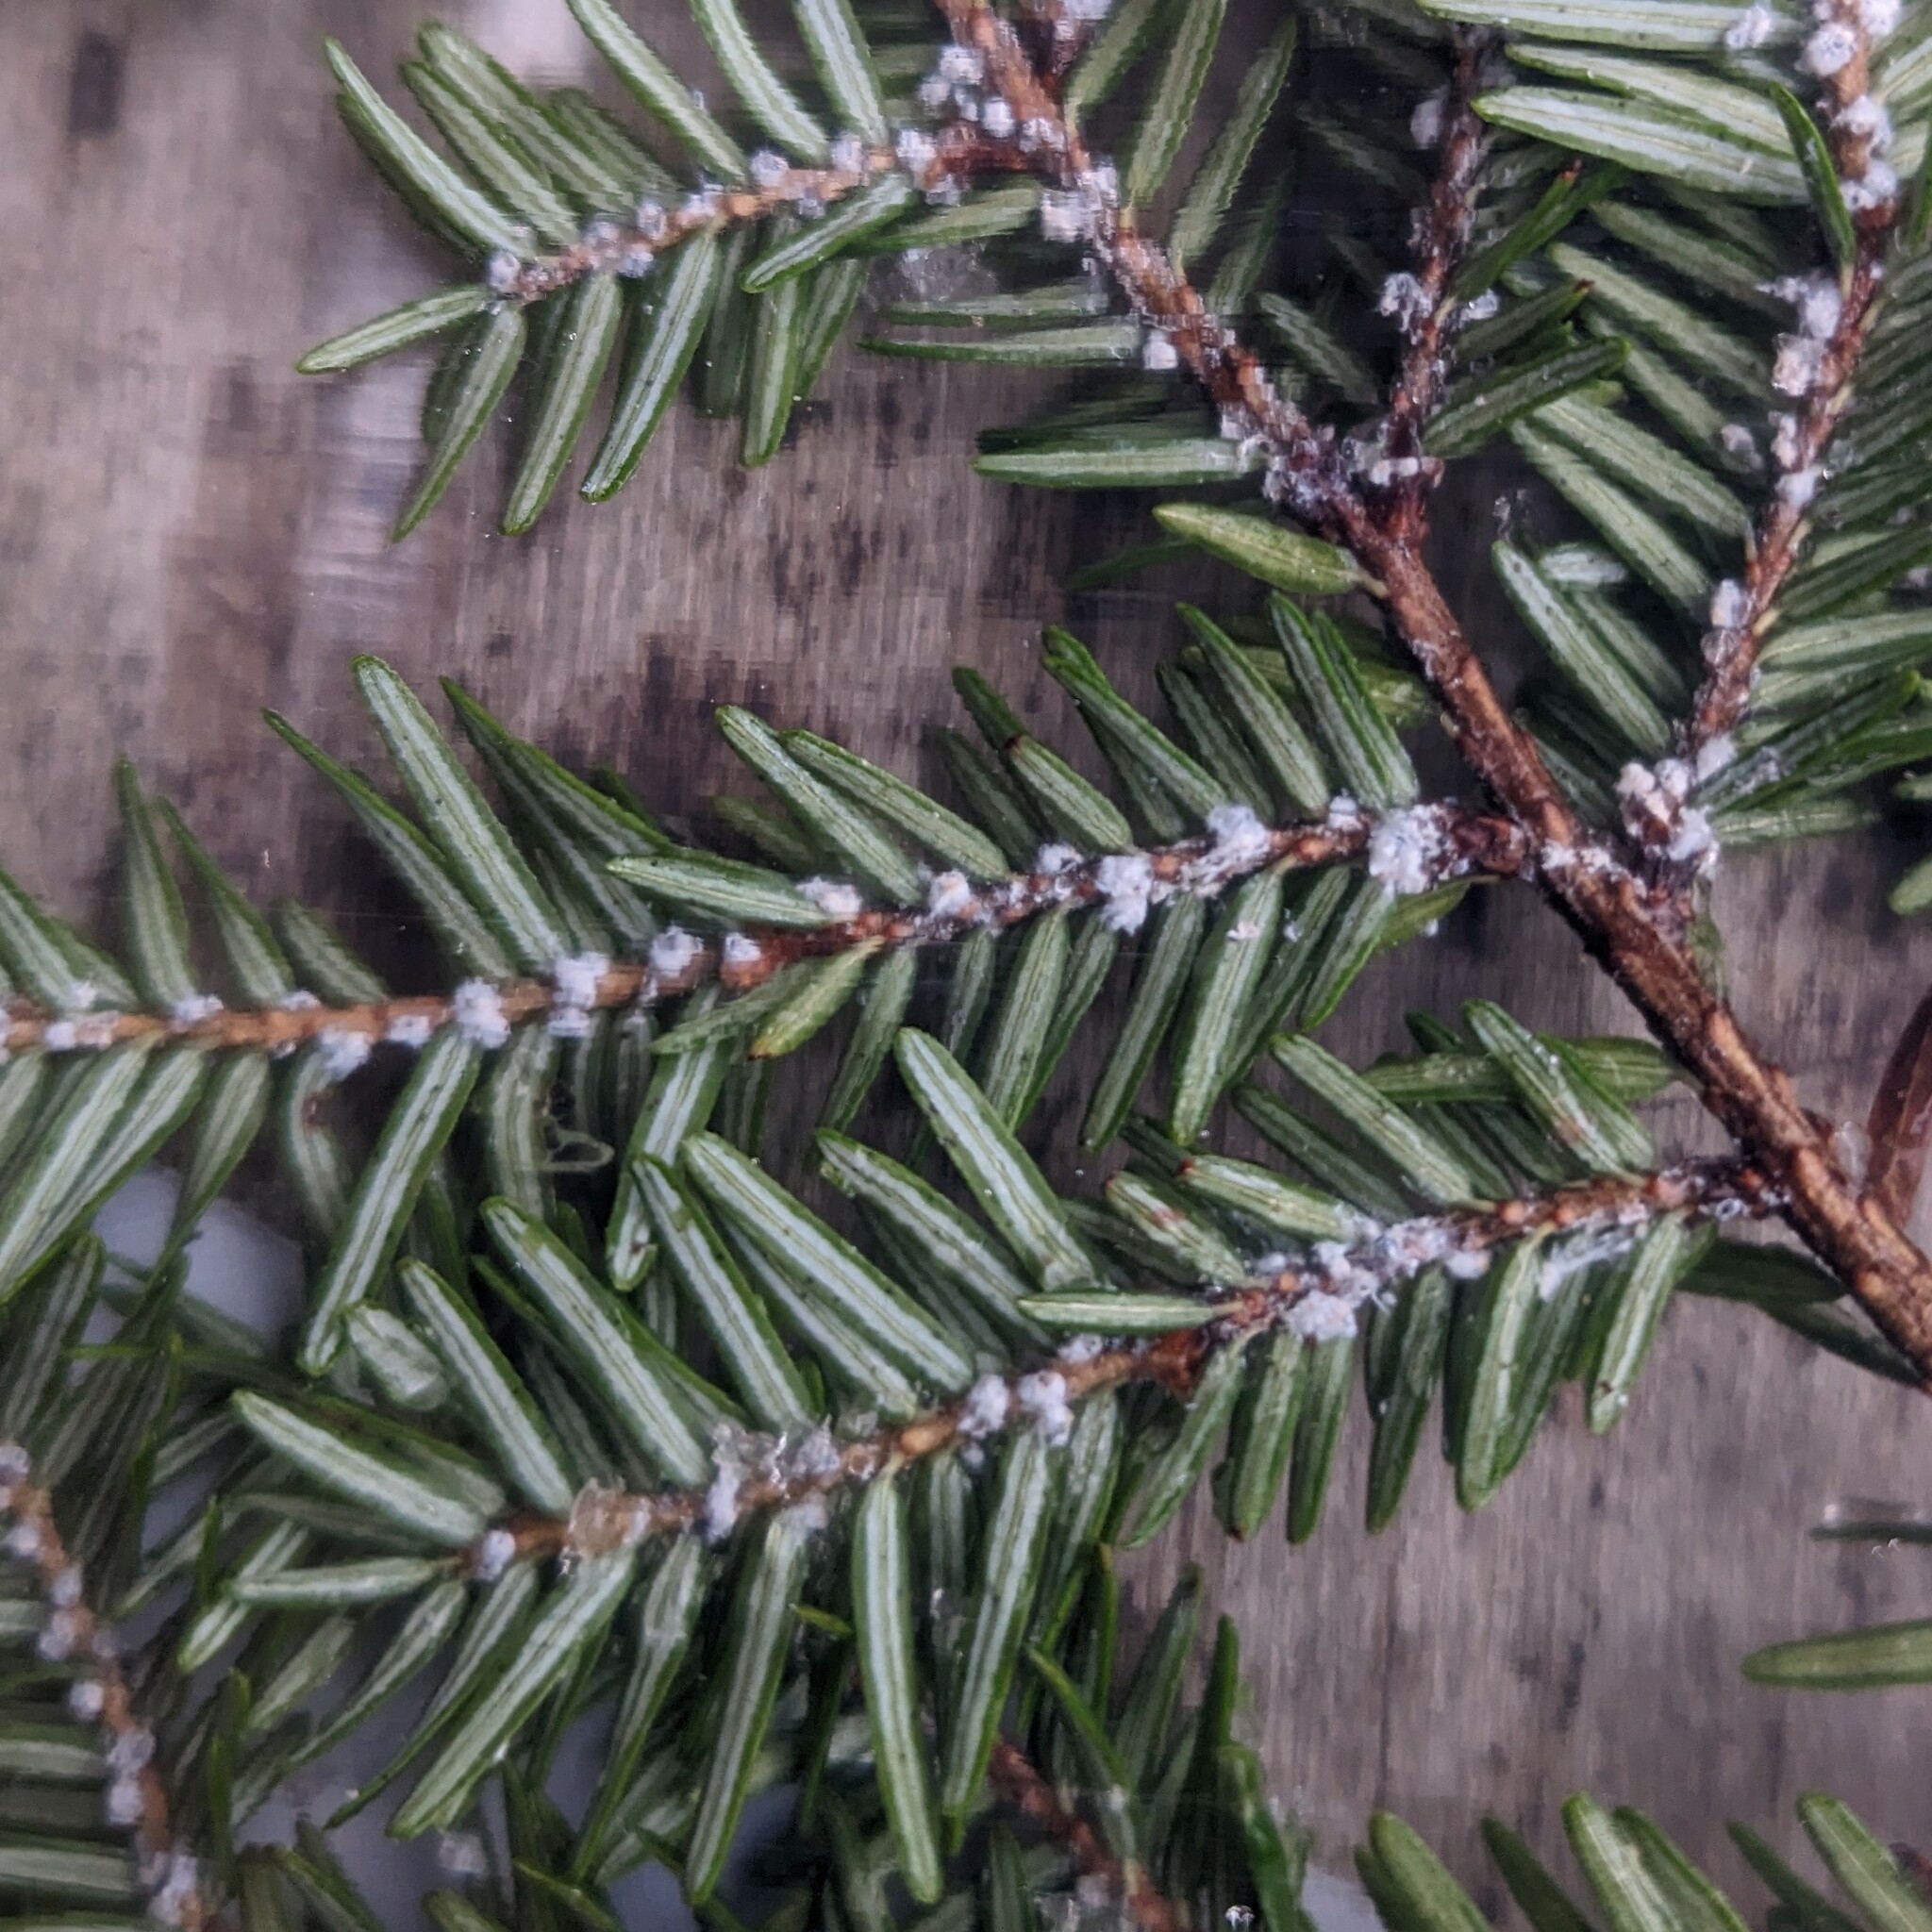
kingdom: Animalia
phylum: Arthropoda
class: Insecta
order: Hemiptera
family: Adelgidae
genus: Adelges
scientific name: Adelges tsugae
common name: Hemlock woolly adelgid
